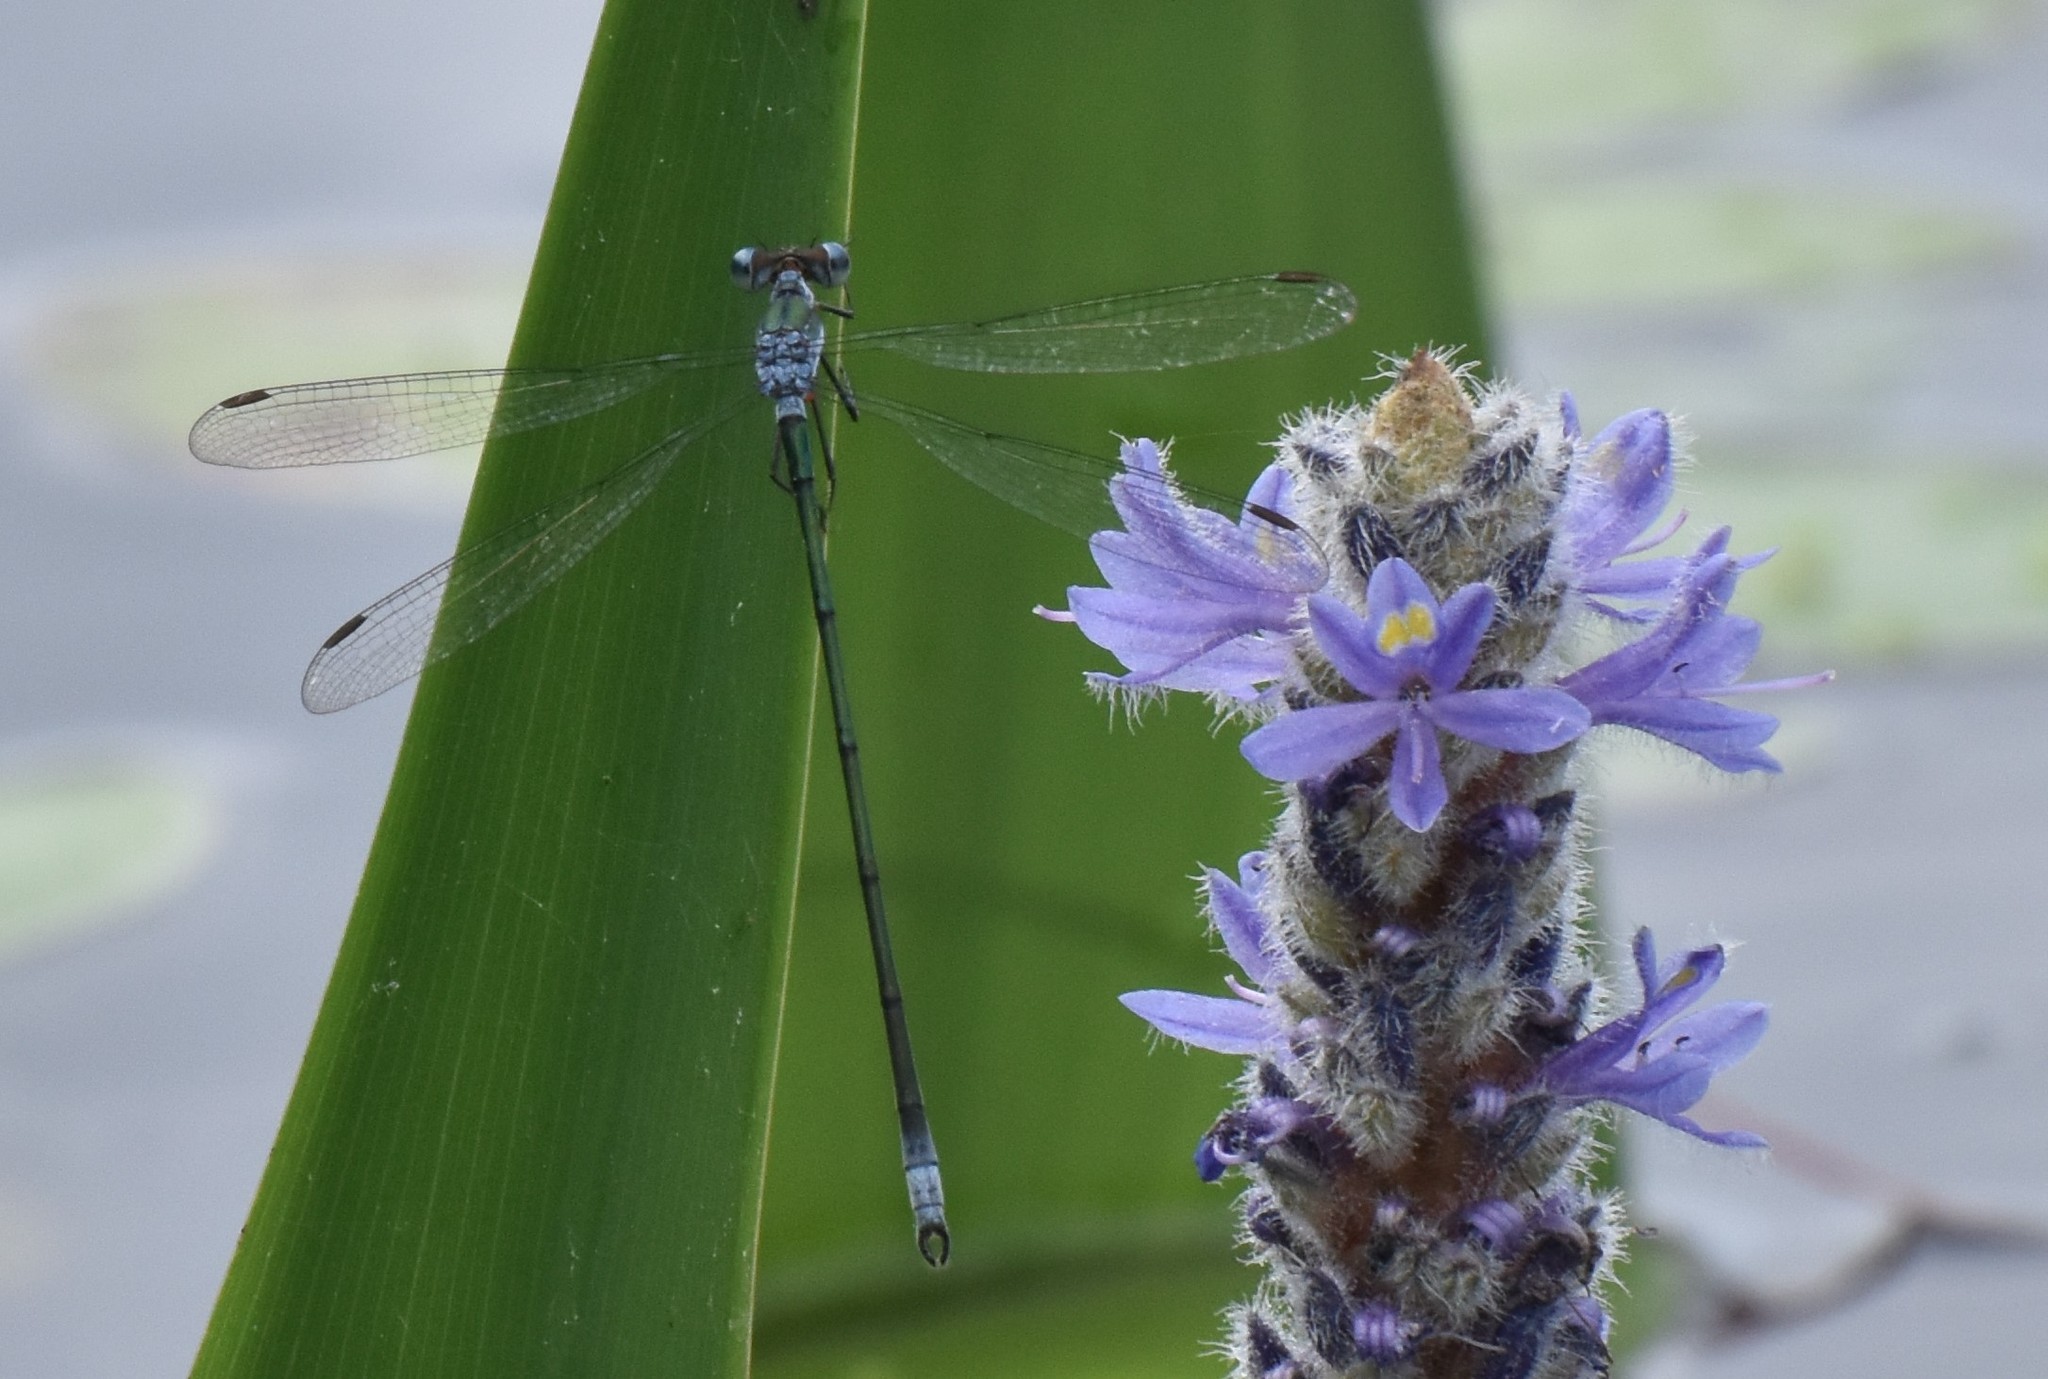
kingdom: Animalia
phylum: Arthropoda
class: Insecta
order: Odonata
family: Lestidae
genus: Lestes
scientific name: Lestes vigilax
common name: Swamp spreadwing
